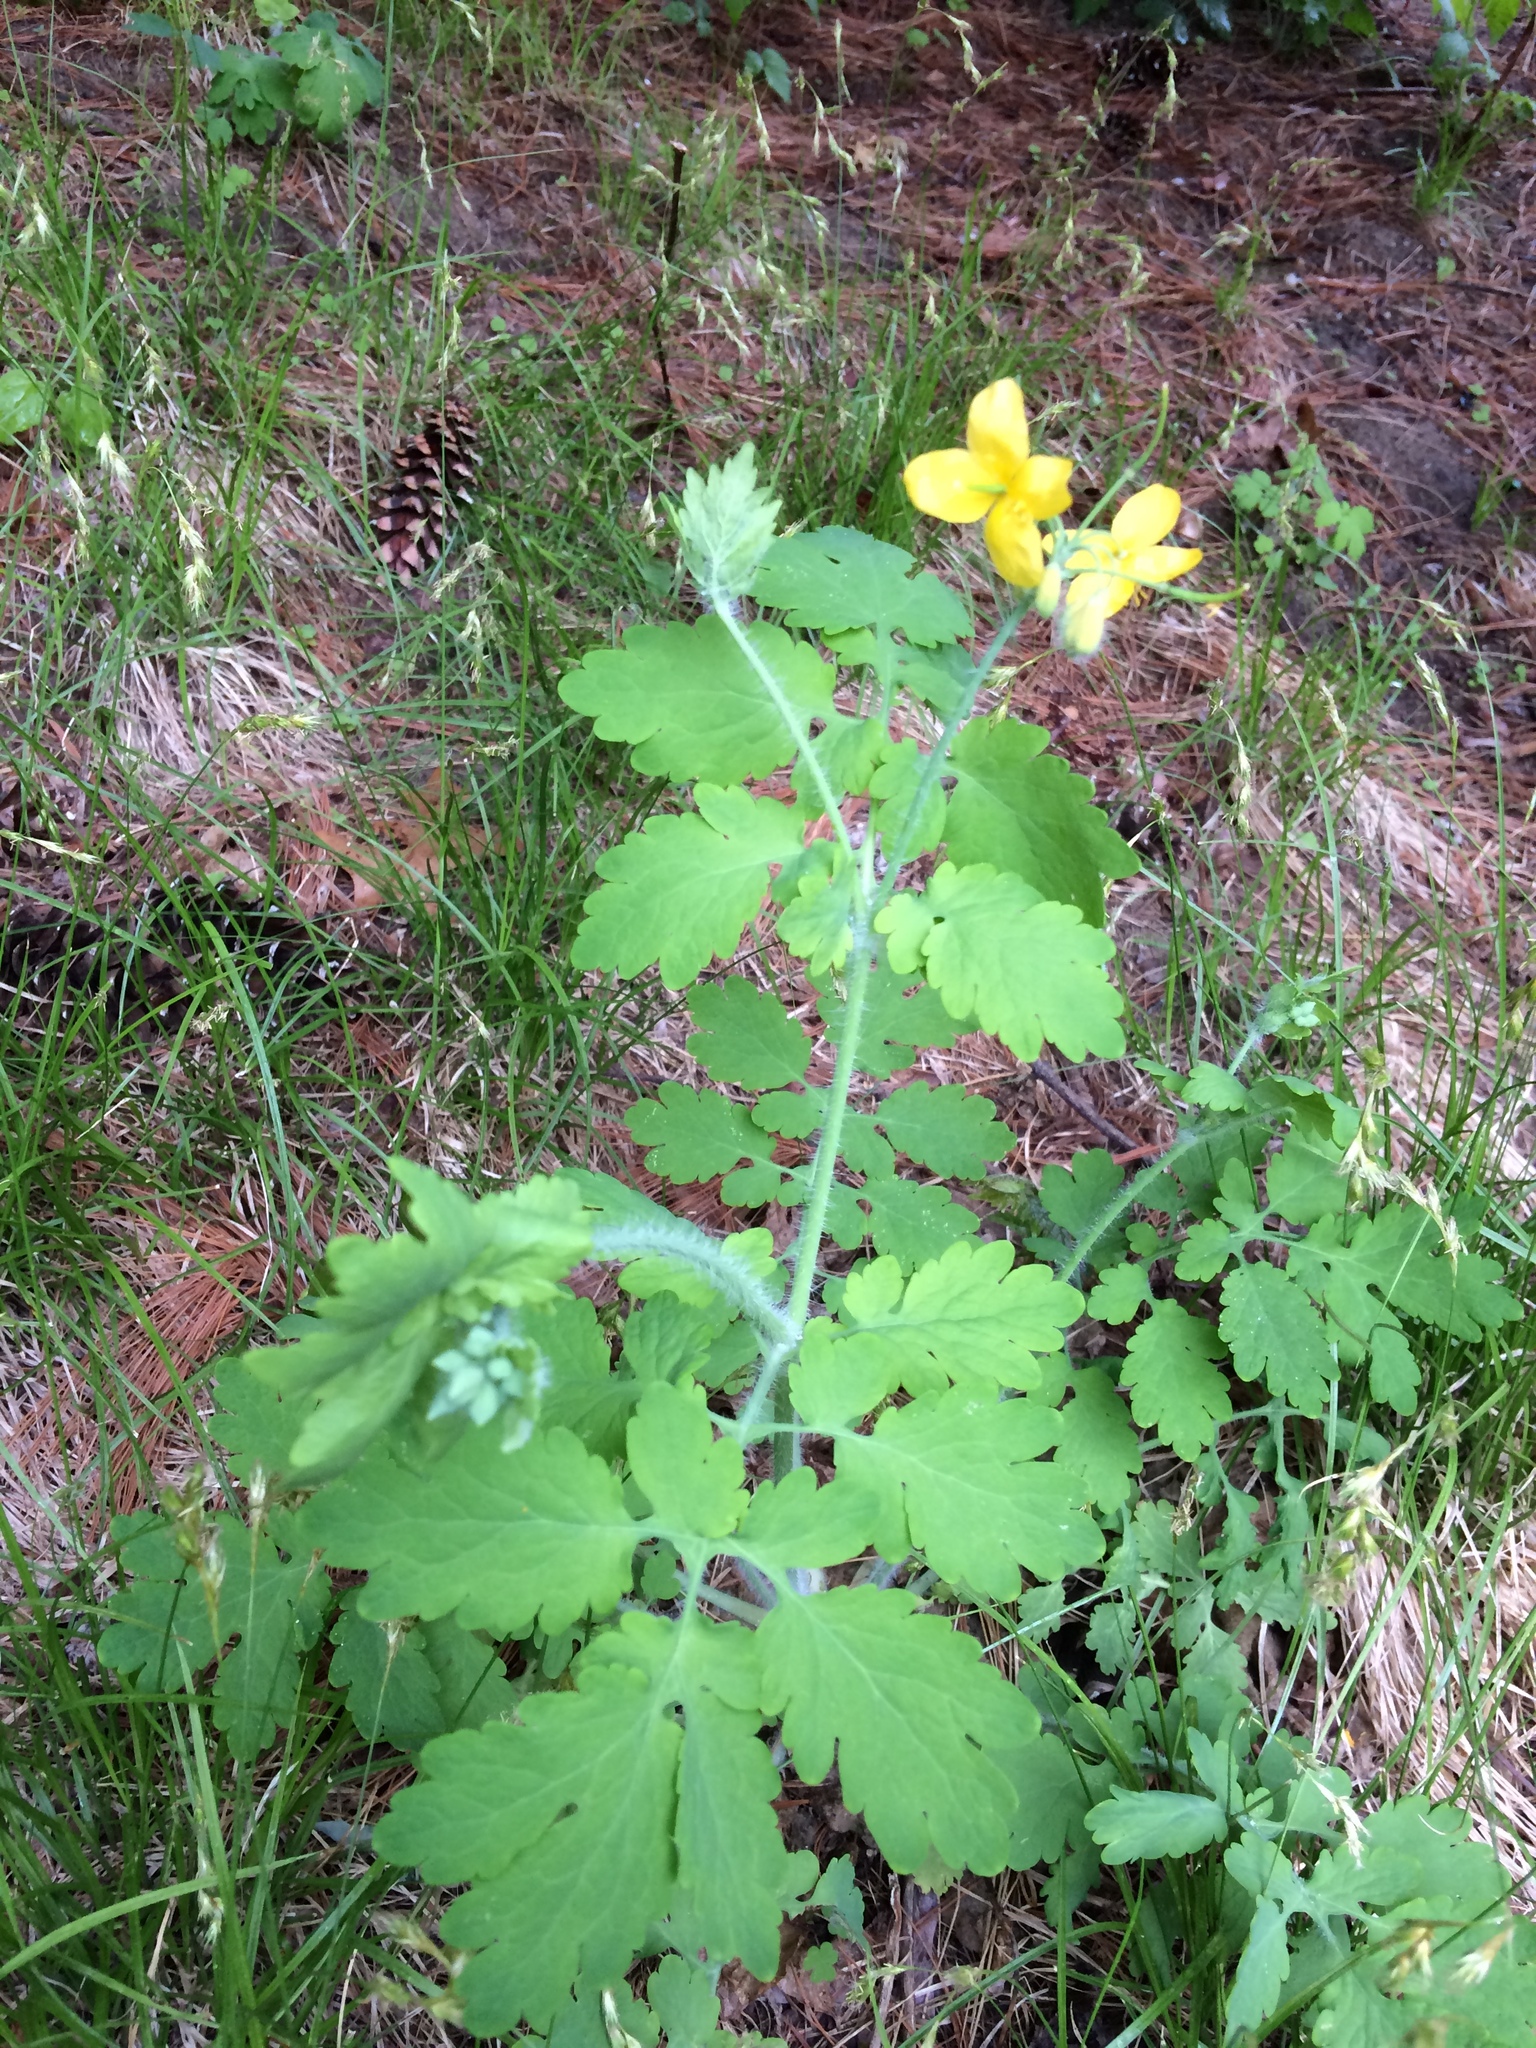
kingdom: Plantae
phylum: Tracheophyta
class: Magnoliopsida
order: Ranunculales
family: Papaveraceae
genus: Chelidonium
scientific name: Chelidonium majus
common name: Greater celandine
